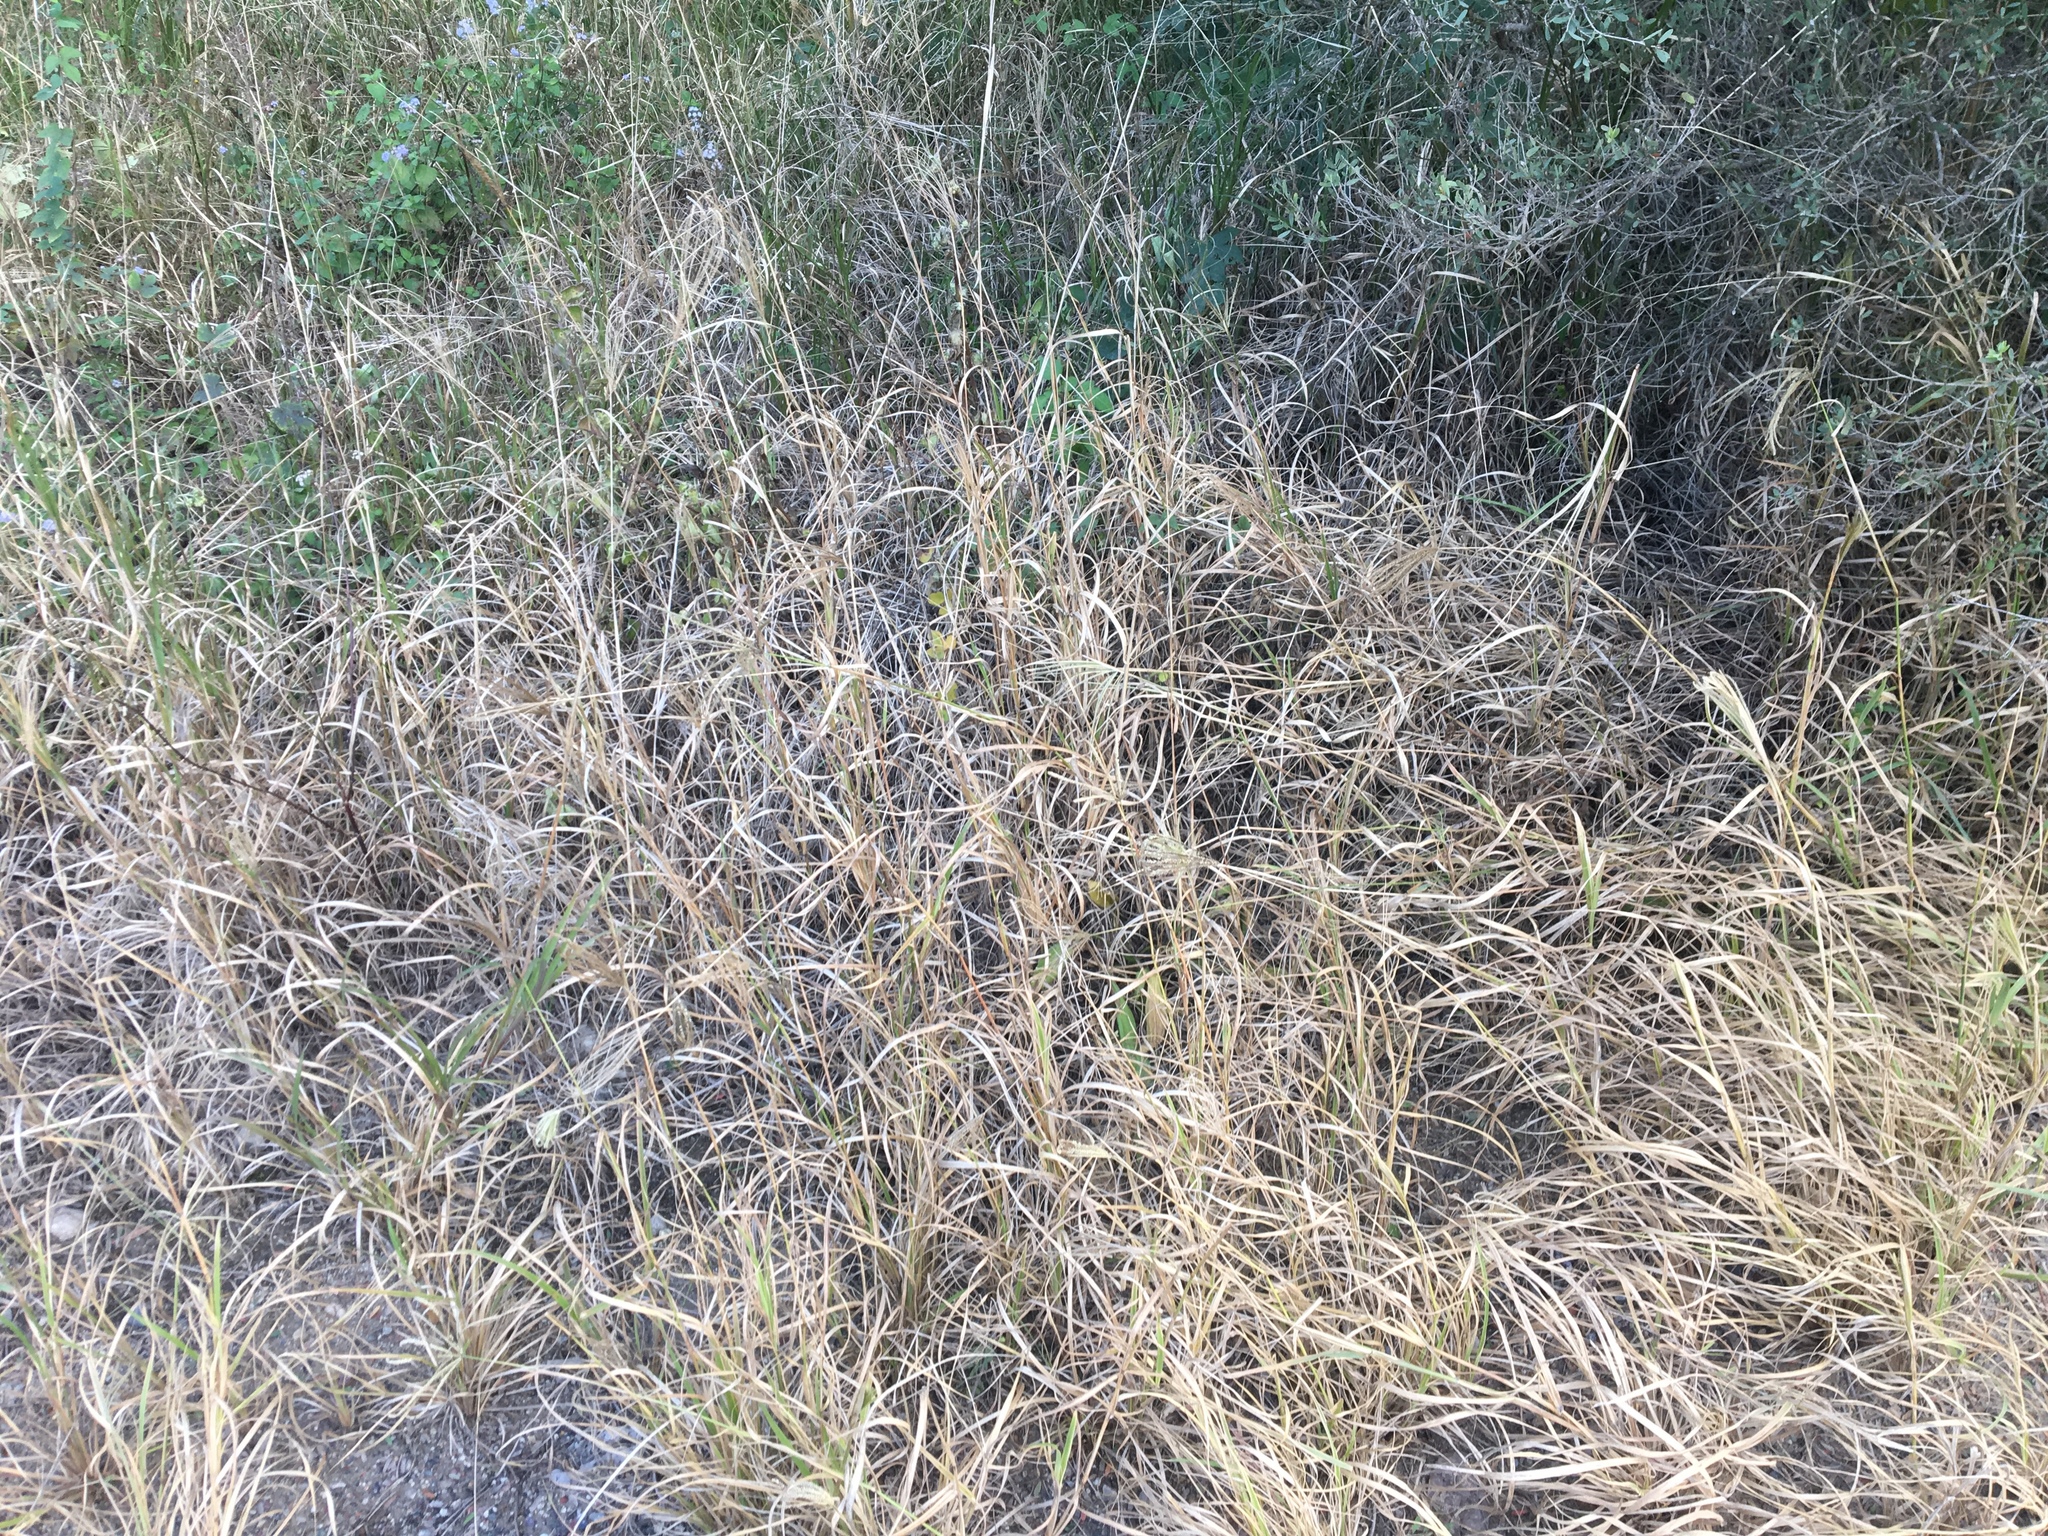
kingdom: Plantae
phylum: Tracheophyta
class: Liliopsida
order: Poales
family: Poaceae
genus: Chloris
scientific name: Chloris gayana
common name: Rhodes grass
